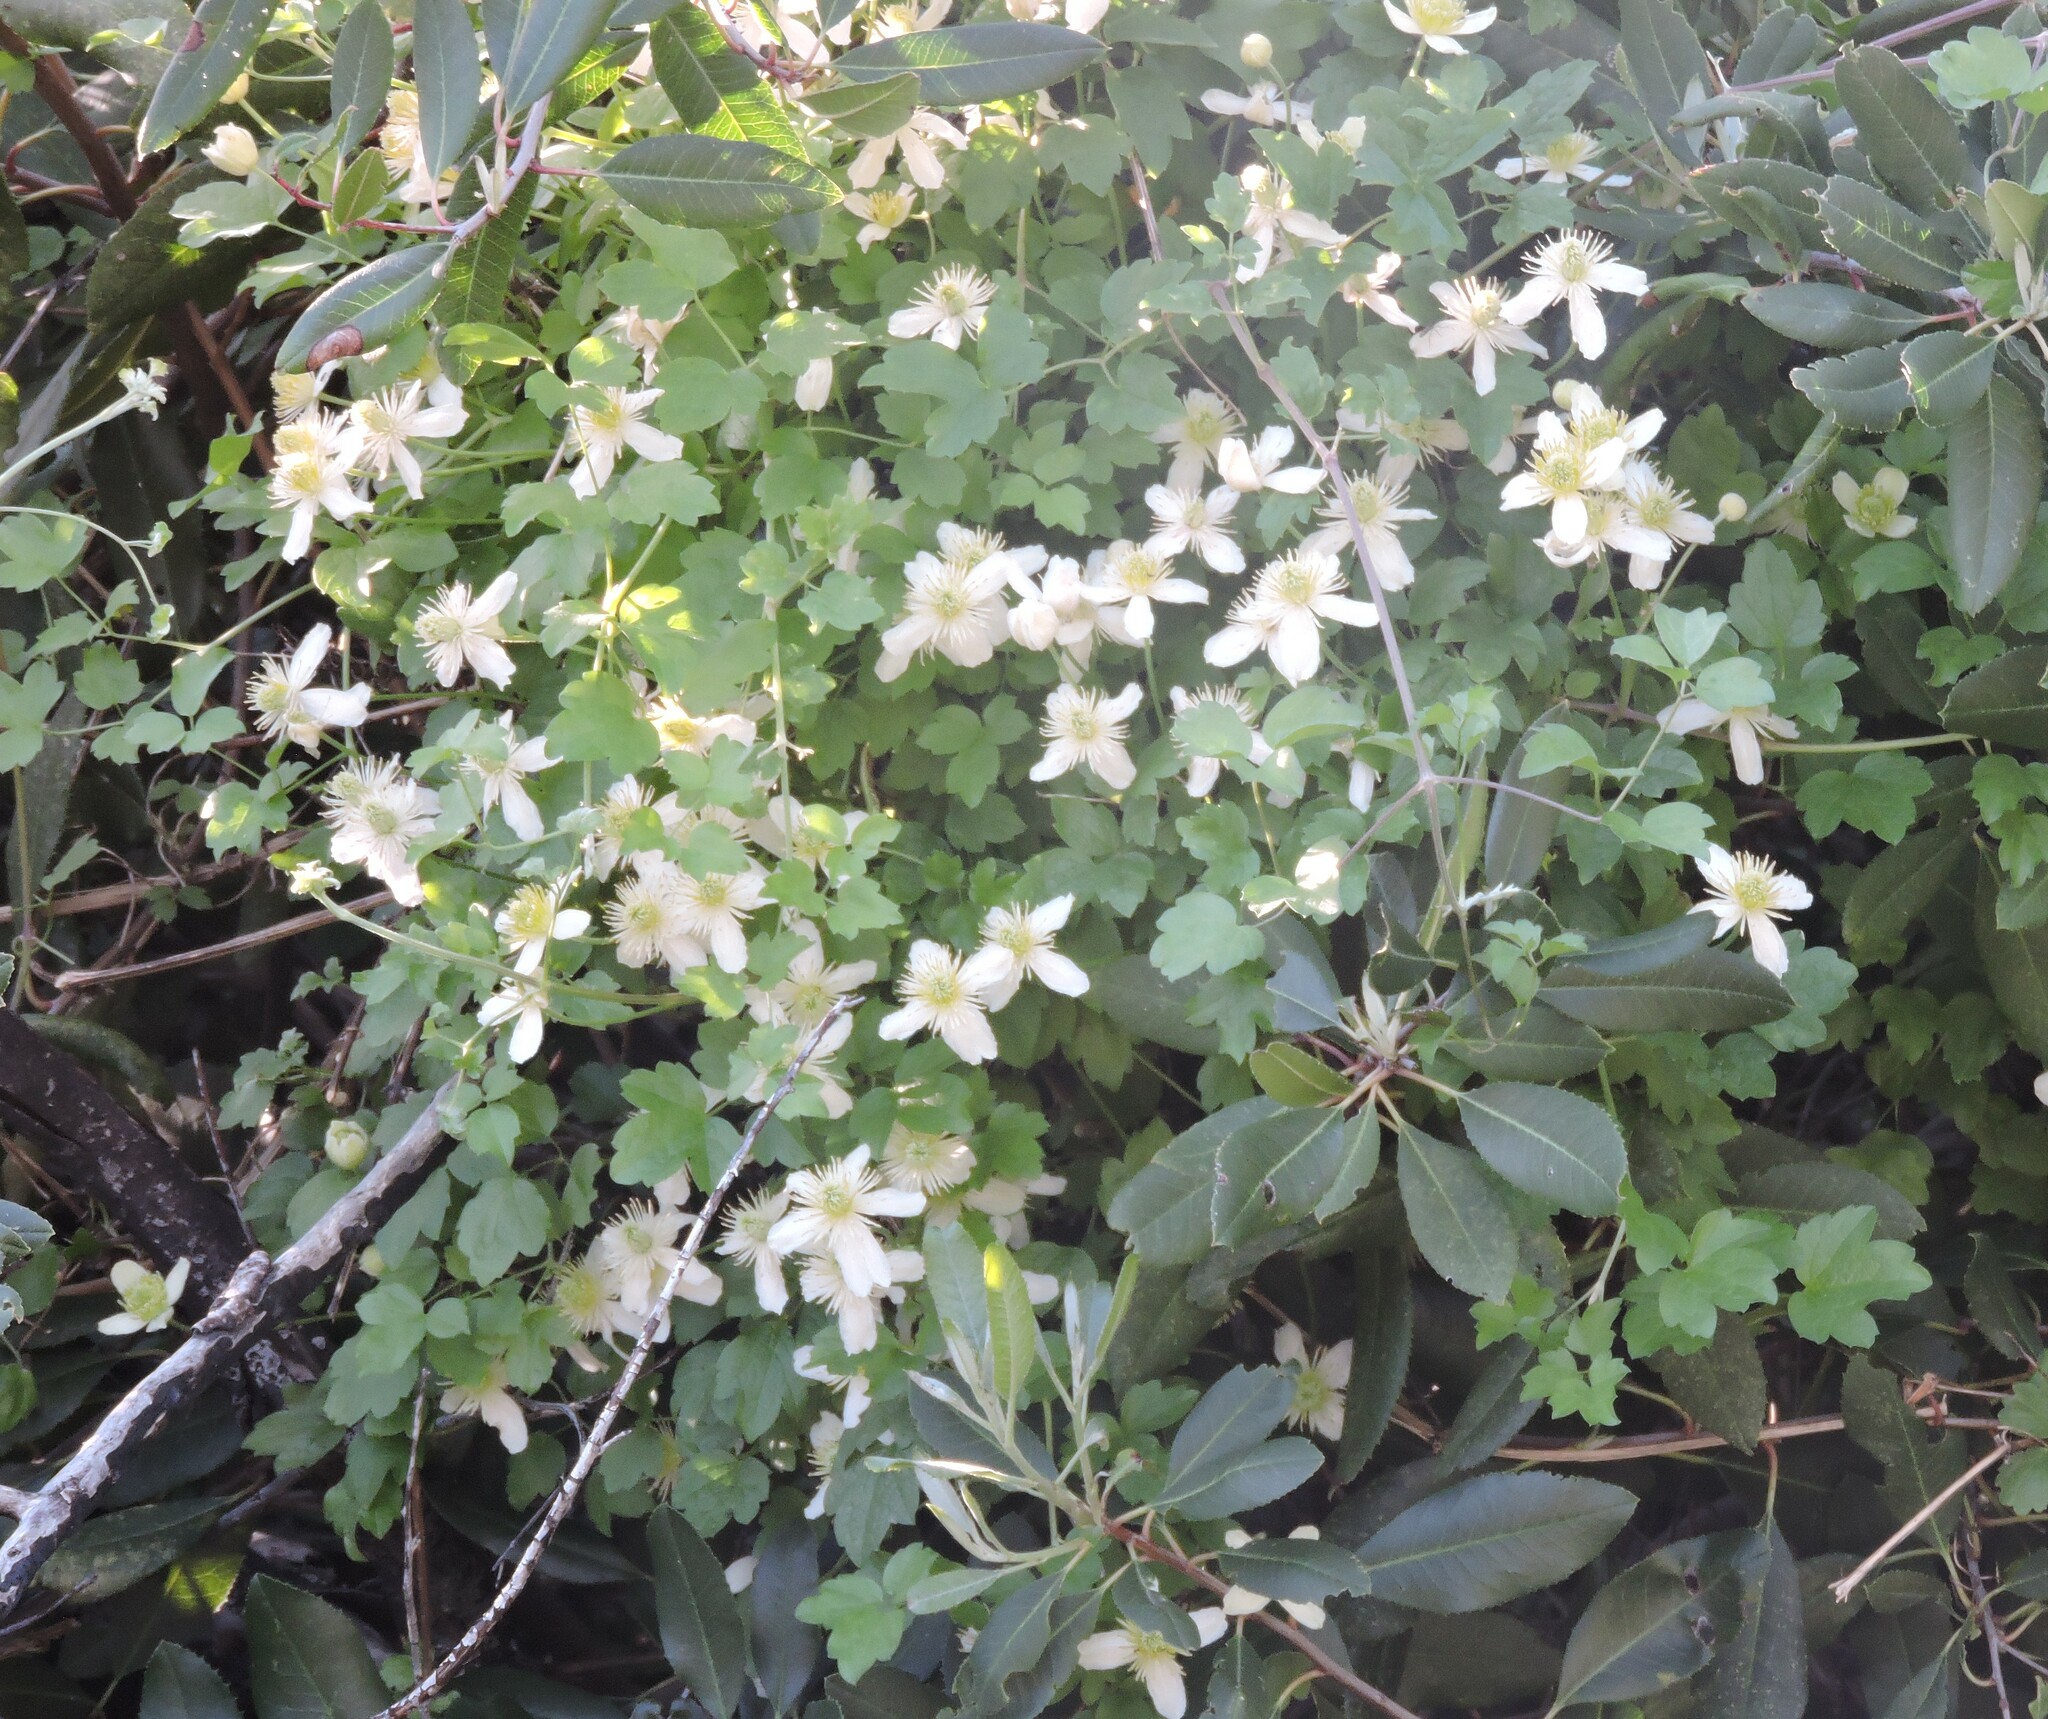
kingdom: Plantae
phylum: Tracheophyta
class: Magnoliopsida
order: Ranunculales
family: Ranunculaceae
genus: Clematis
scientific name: Clematis lasiantha
